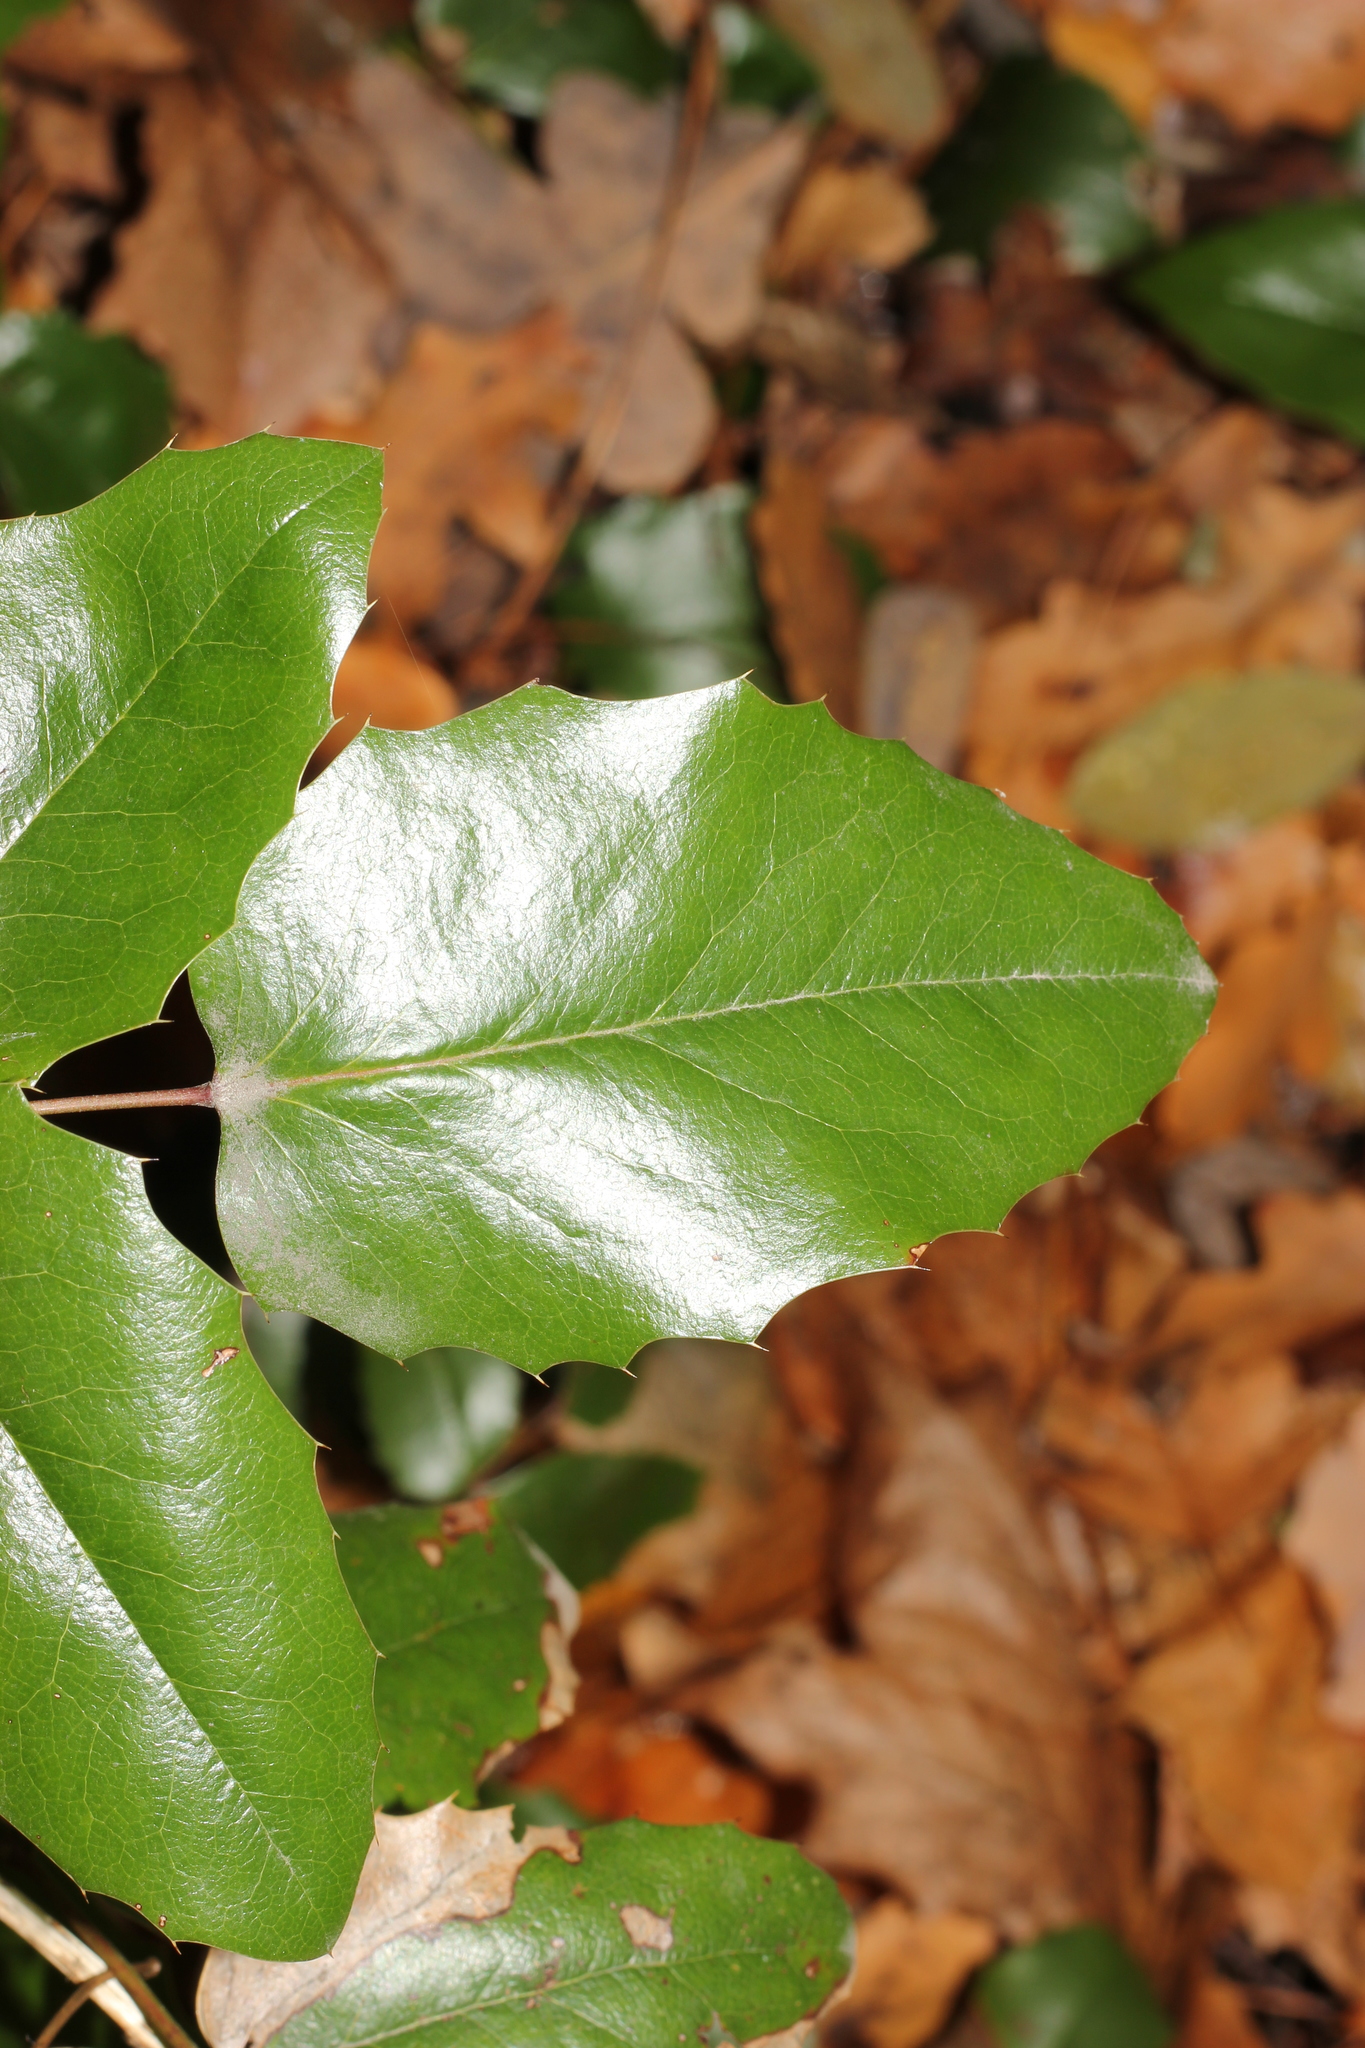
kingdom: Plantae
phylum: Tracheophyta
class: Magnoliopsida
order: Ranunculales
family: Berberidaceae
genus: Mahonia
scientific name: Mahonia aquifolium
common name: Oregon-grape
